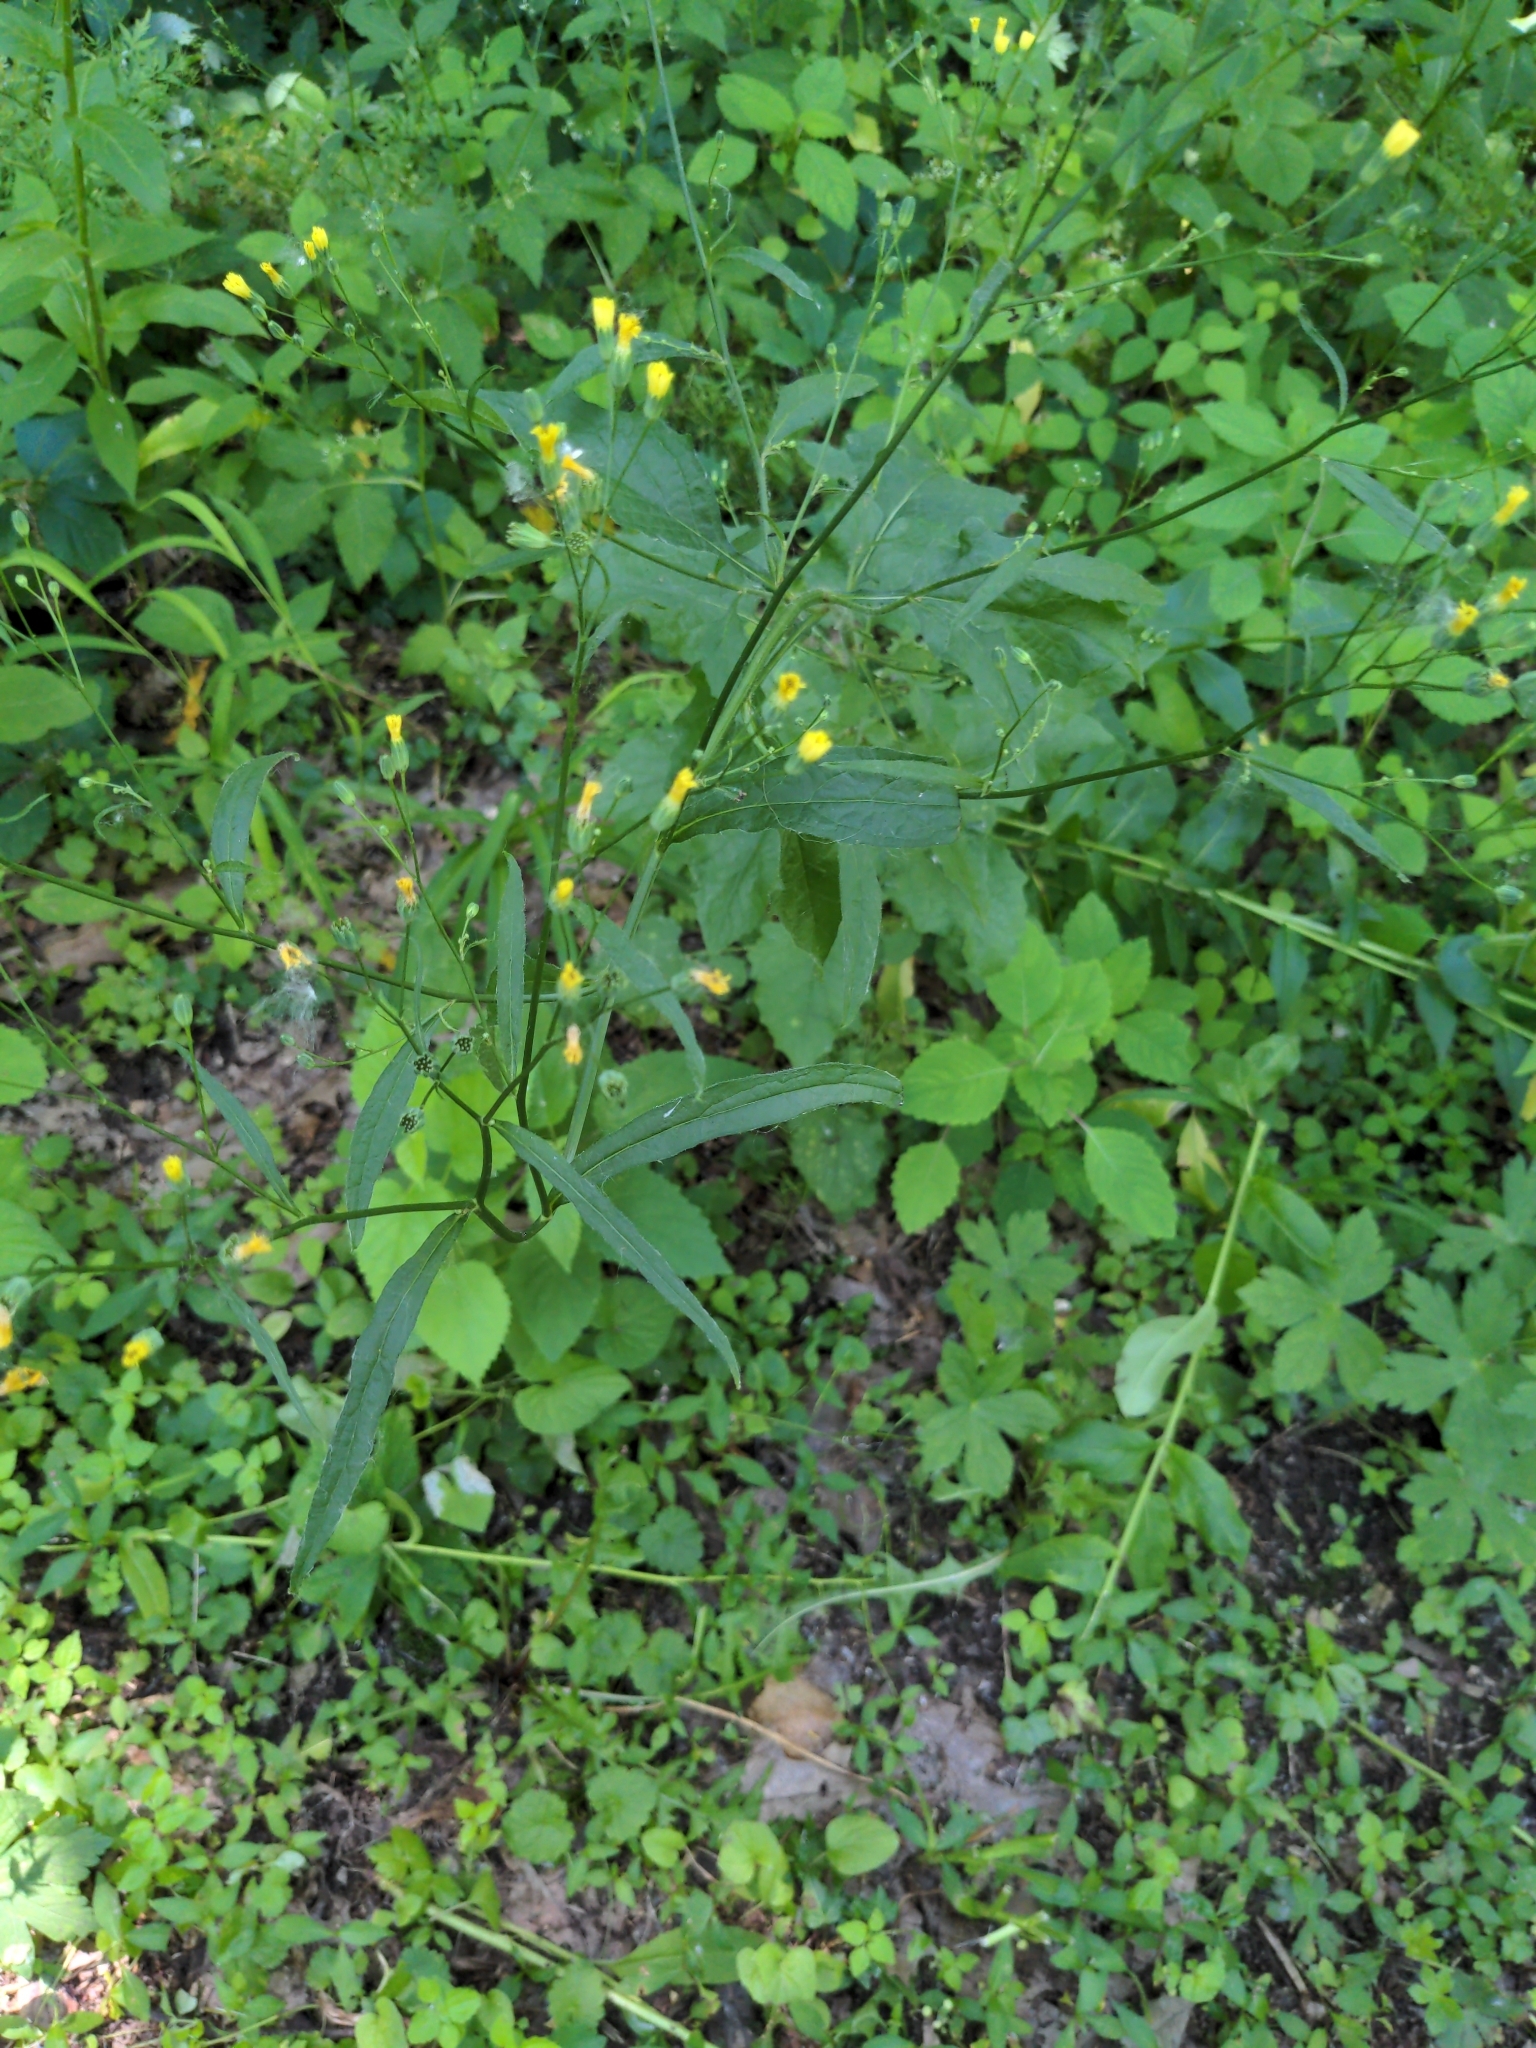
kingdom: Plantae
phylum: Tracheophyta
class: Magnoliopsida
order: Asterales
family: Asteraceae
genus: Lapsana
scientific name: Lapsana communis
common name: Nipplewort
